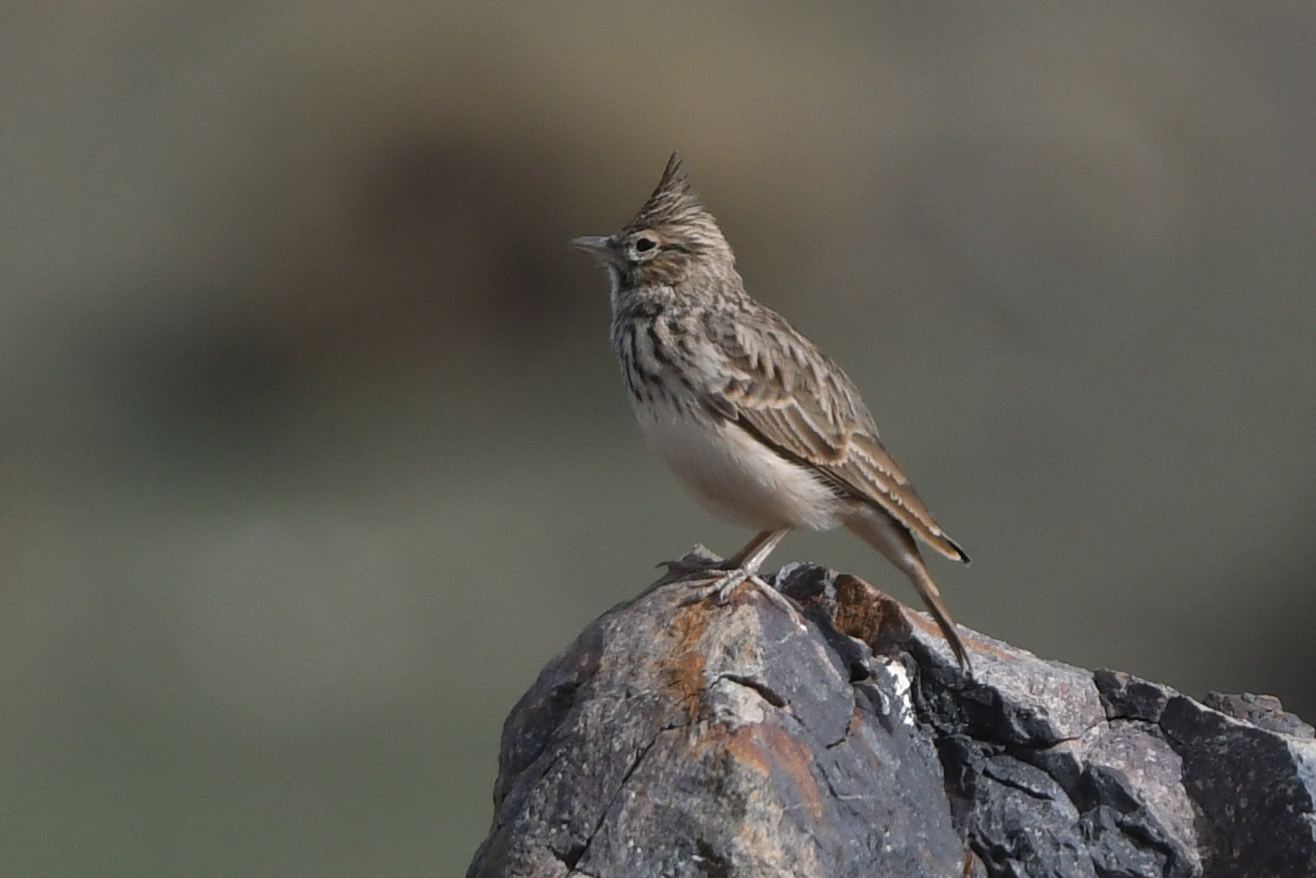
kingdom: Animalia
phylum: Chordata
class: Aves
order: Passeriformes
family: Alaudidae
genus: Galerida
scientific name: Galerida theklae
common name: Thekla lark
